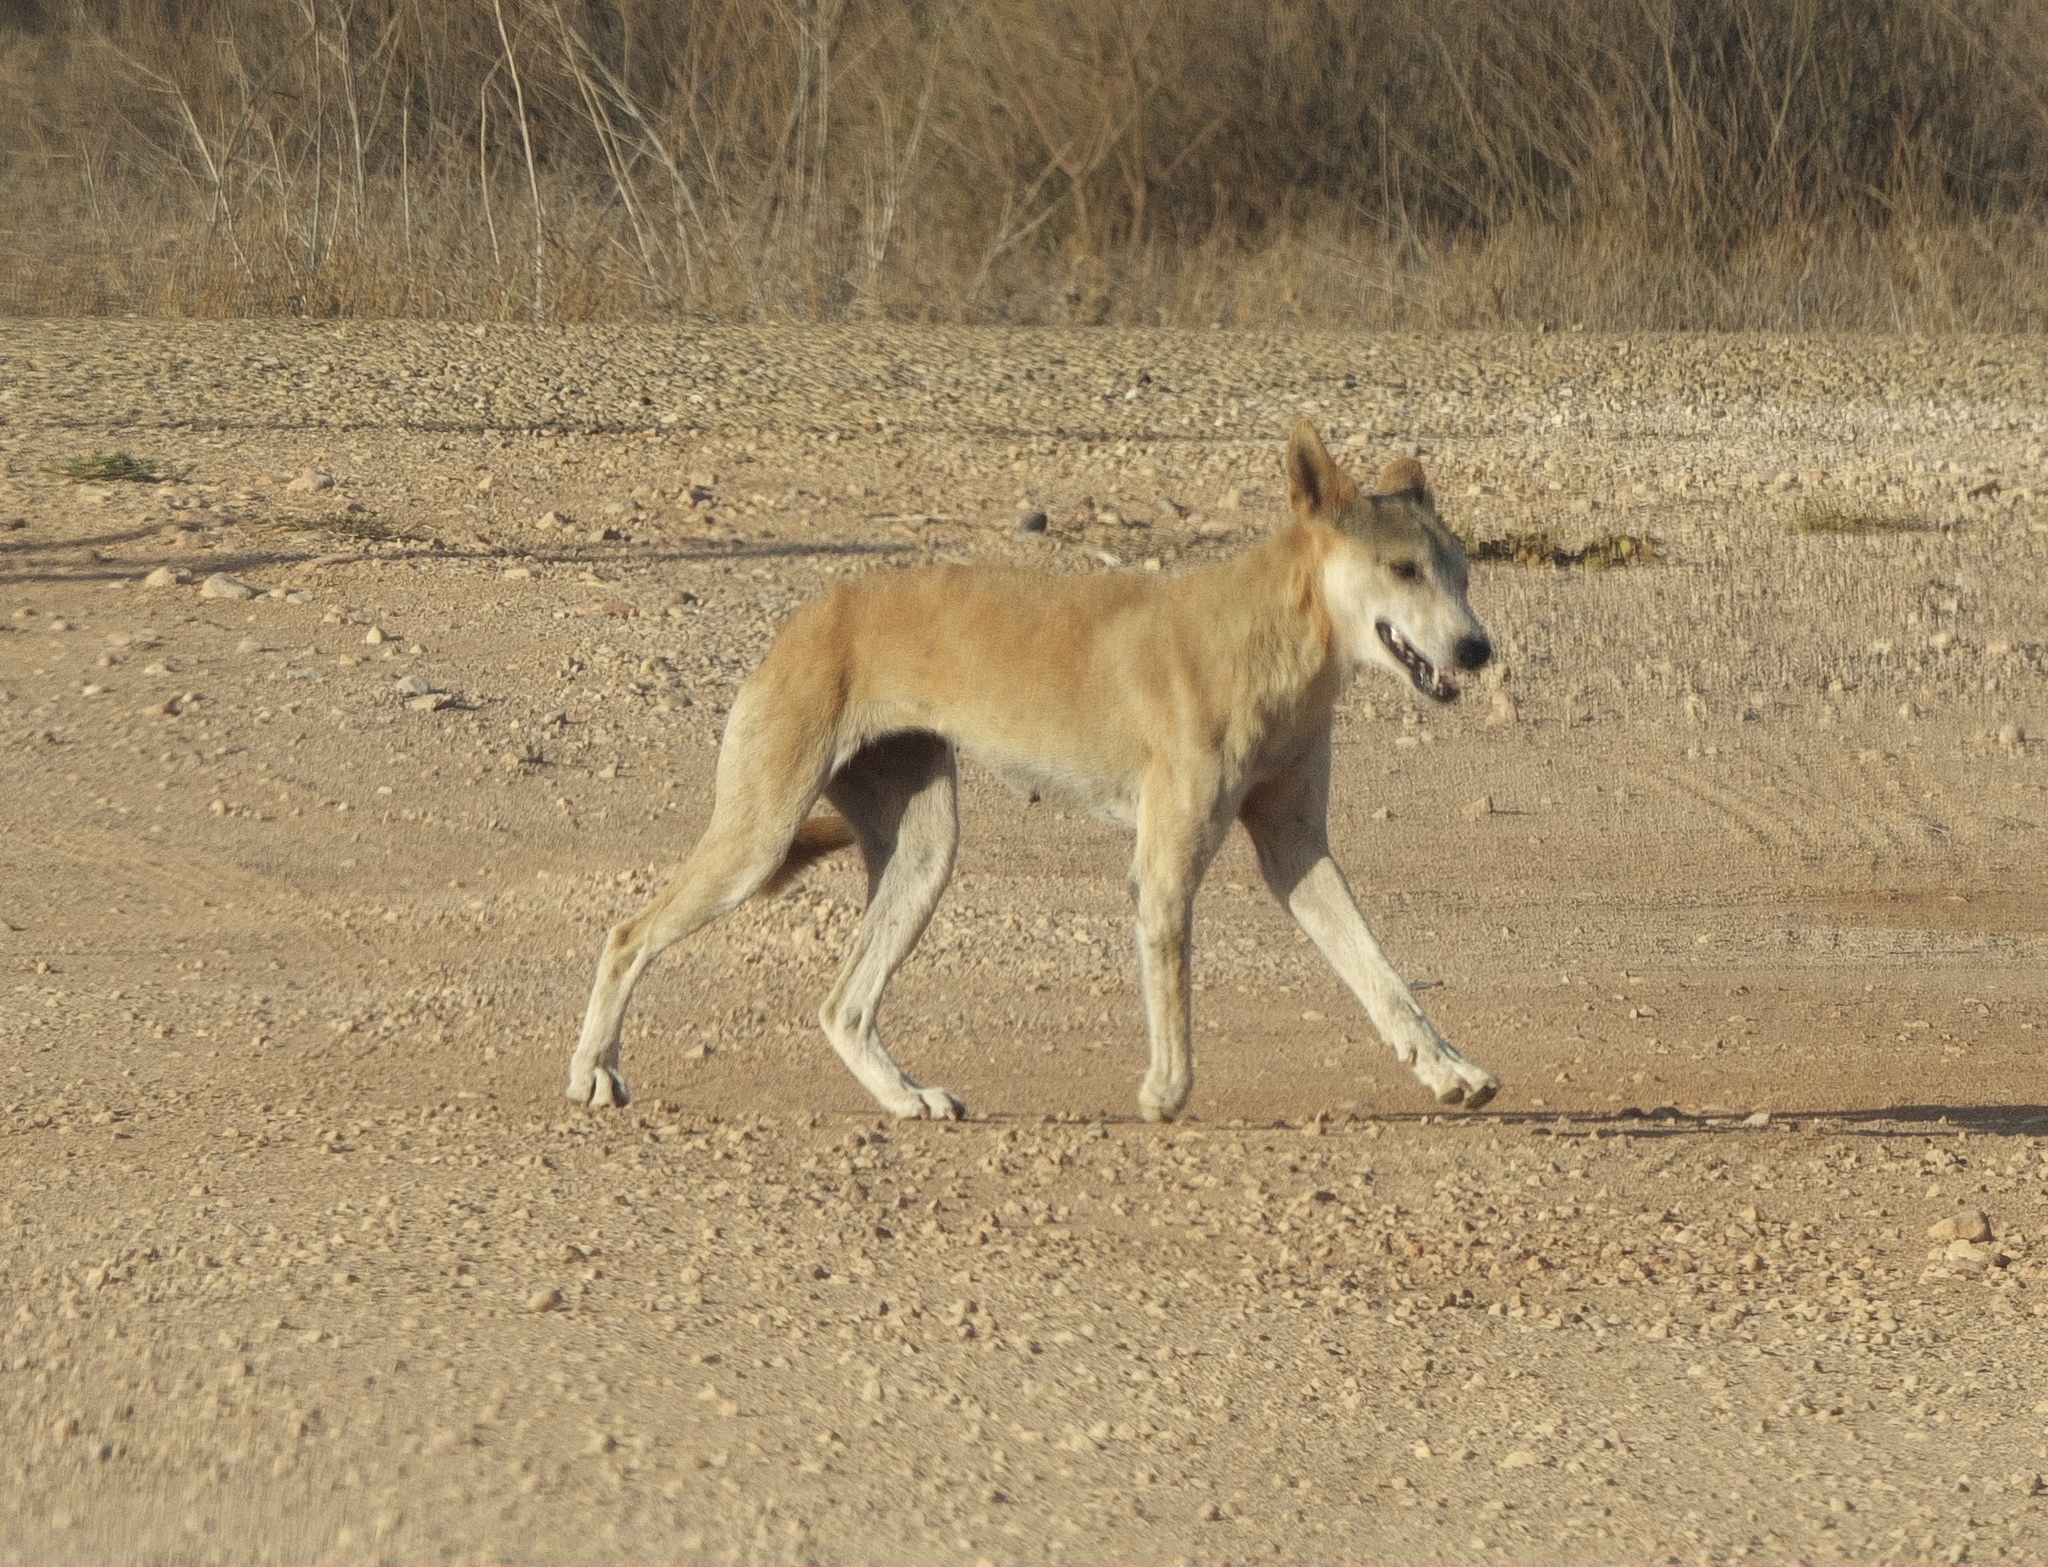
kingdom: Animalia
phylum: Chordata
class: Mammalia
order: Carnivora
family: Canidae
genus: Canis
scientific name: Canis lupus
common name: Gray wolf
